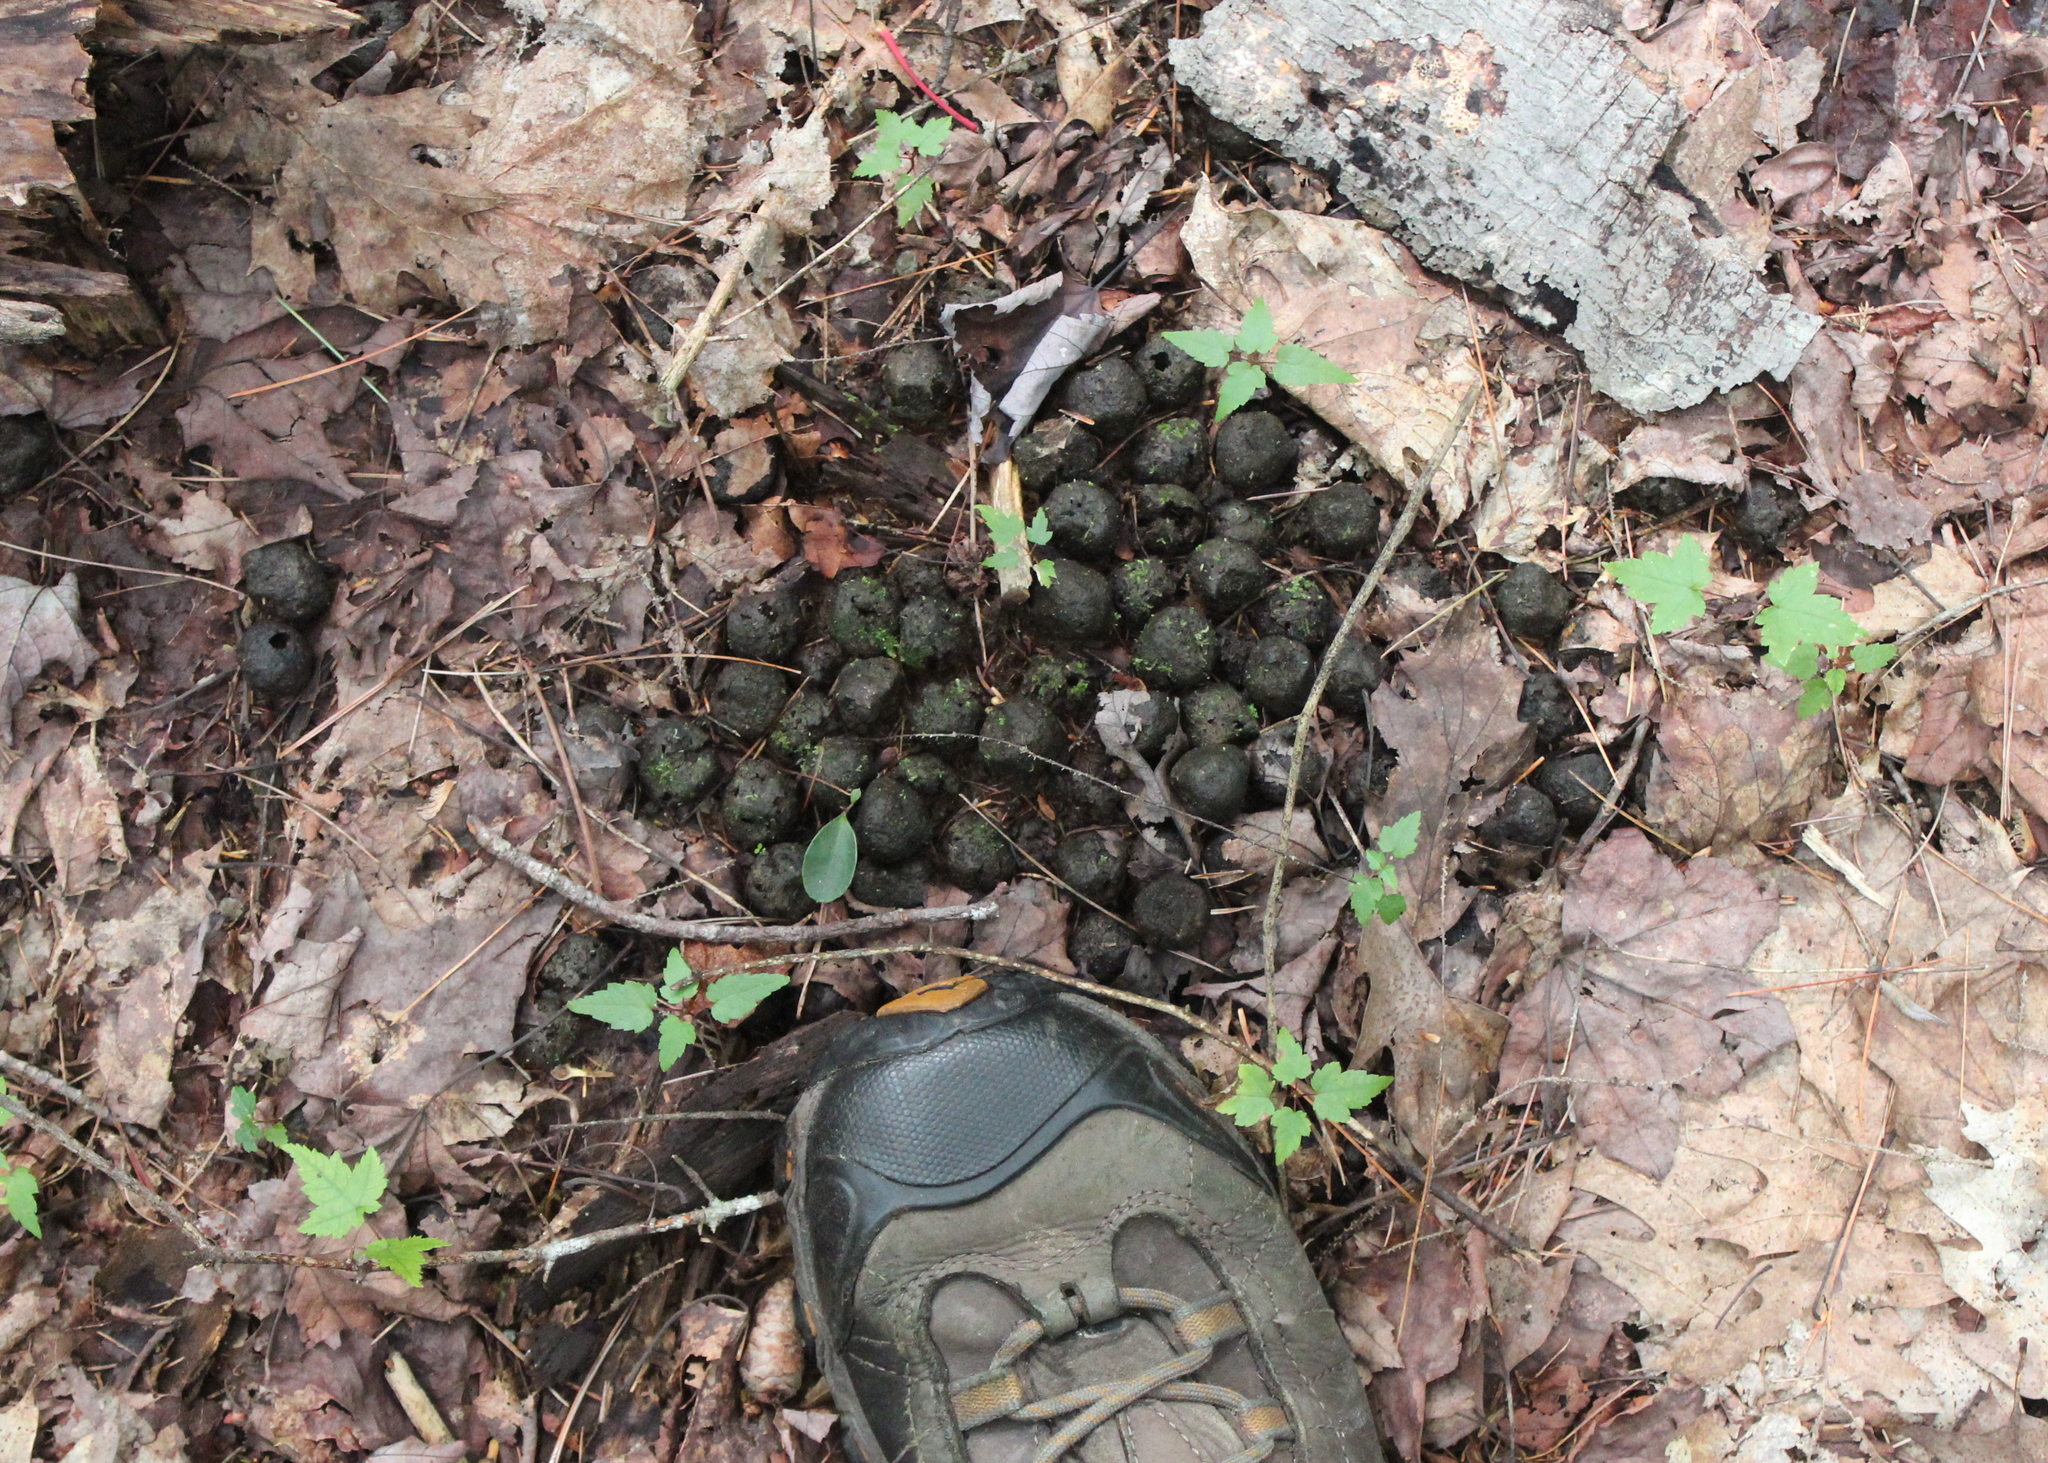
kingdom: Animalia
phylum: Chordata
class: Mammalia
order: Artiodactyla
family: Cervidae
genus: Alces
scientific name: Alces alces
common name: Moose
